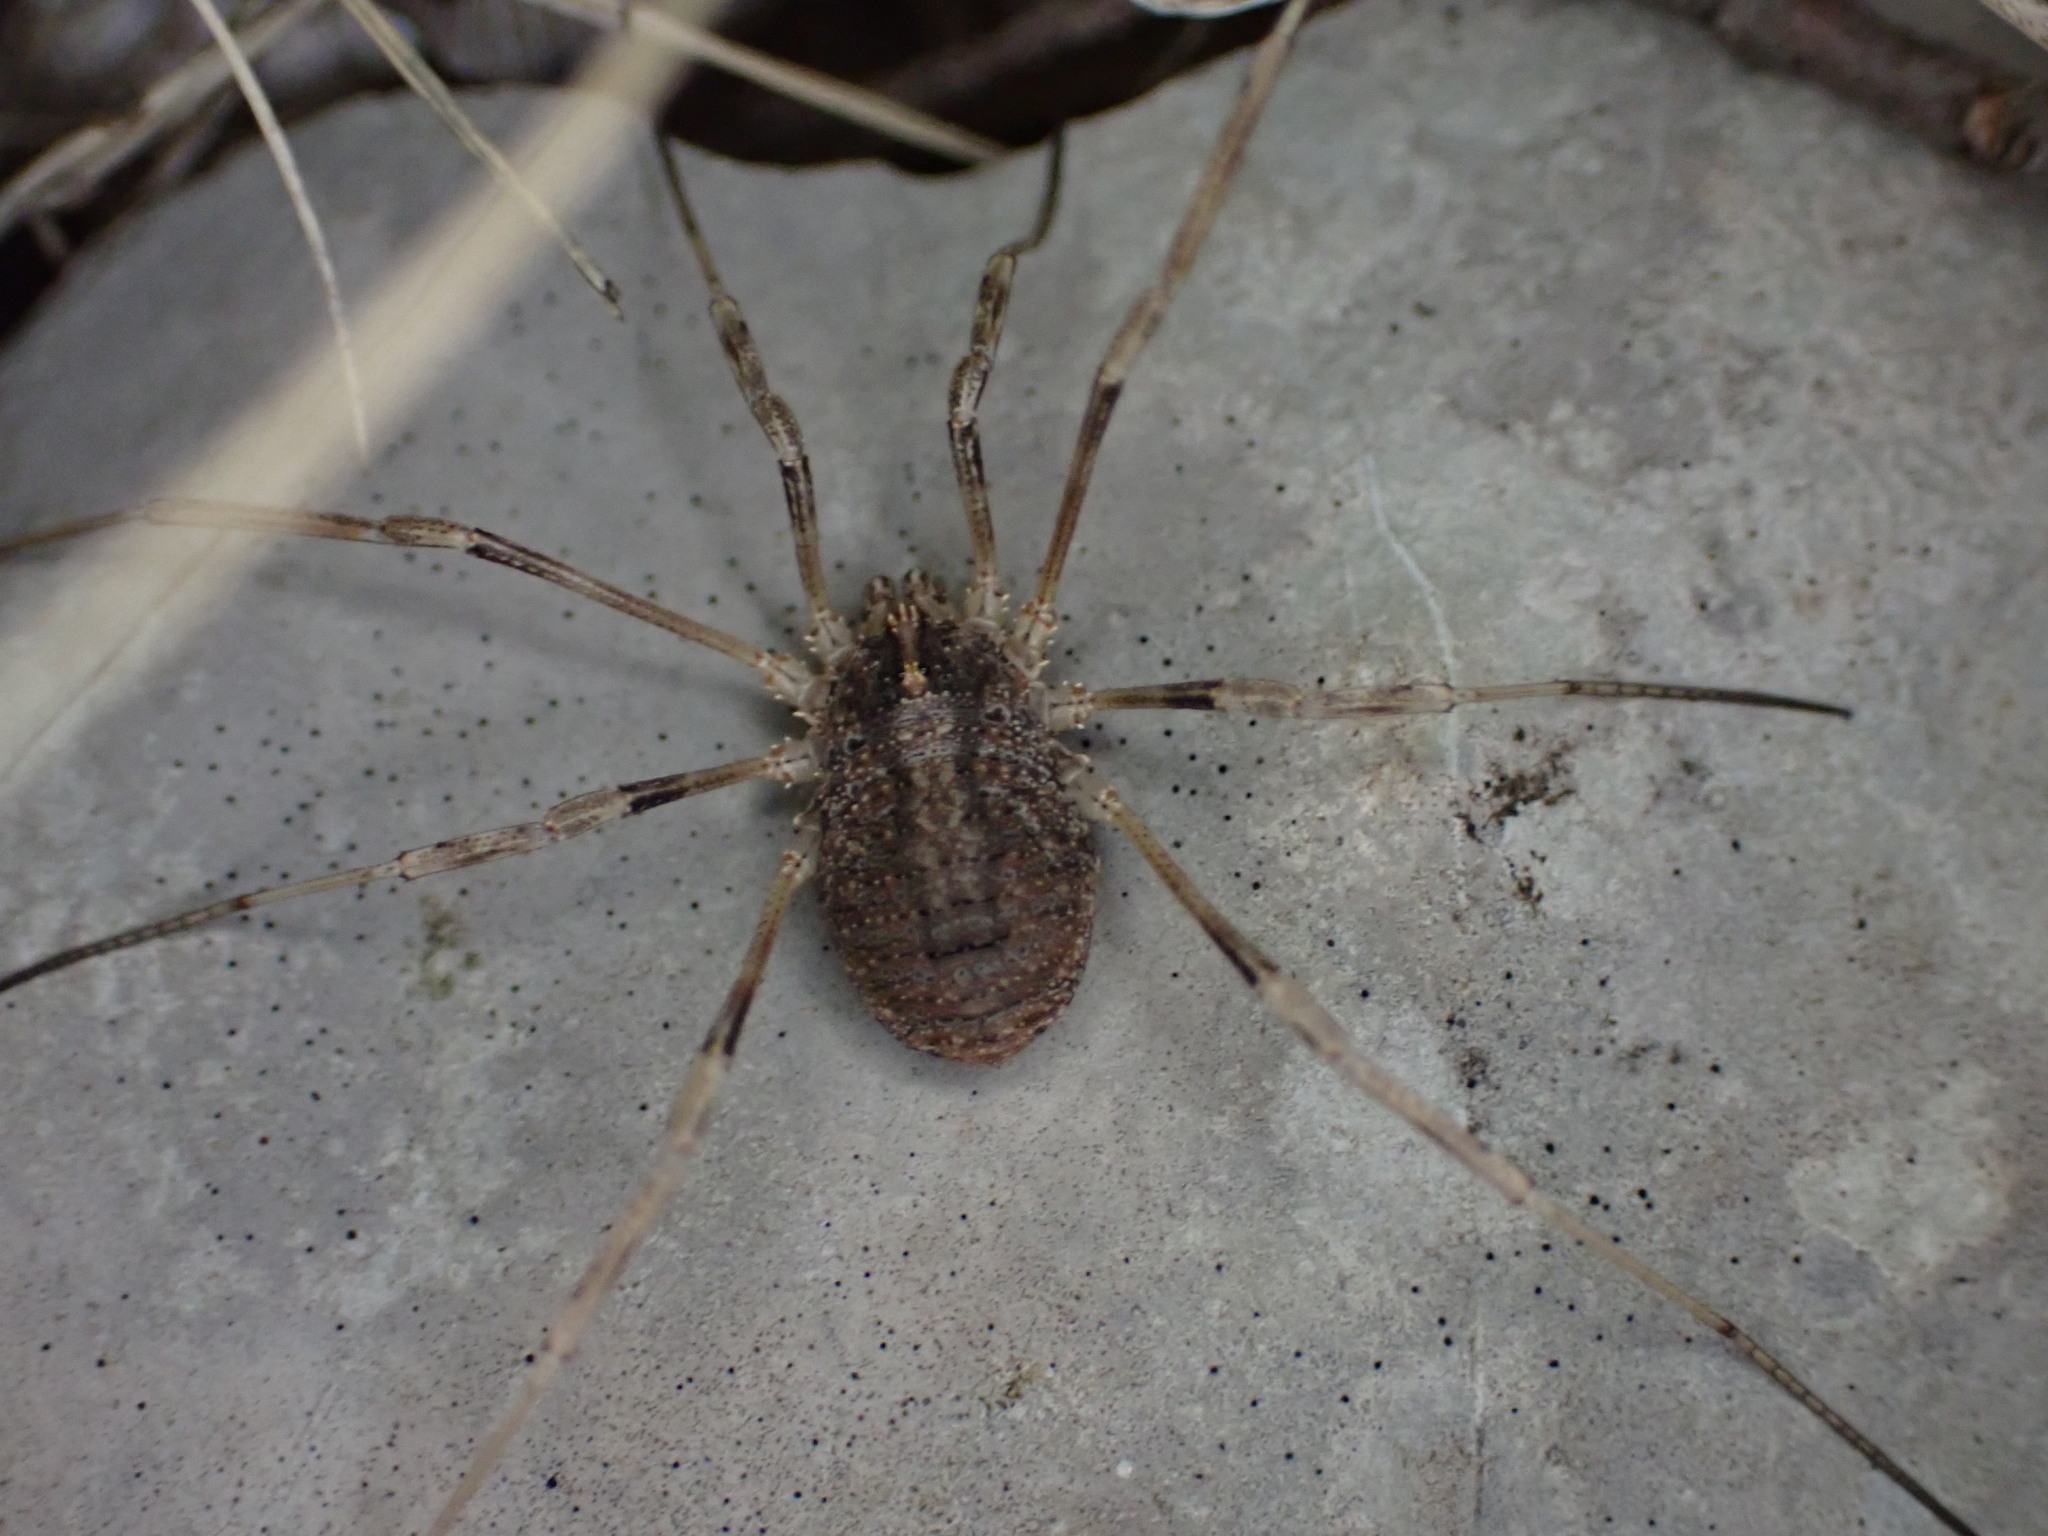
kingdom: Animalia
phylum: Arthropoda
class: Arachnida
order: Opiliones
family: Phalangiidae
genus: Odiellus
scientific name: Odiellus spinosus
